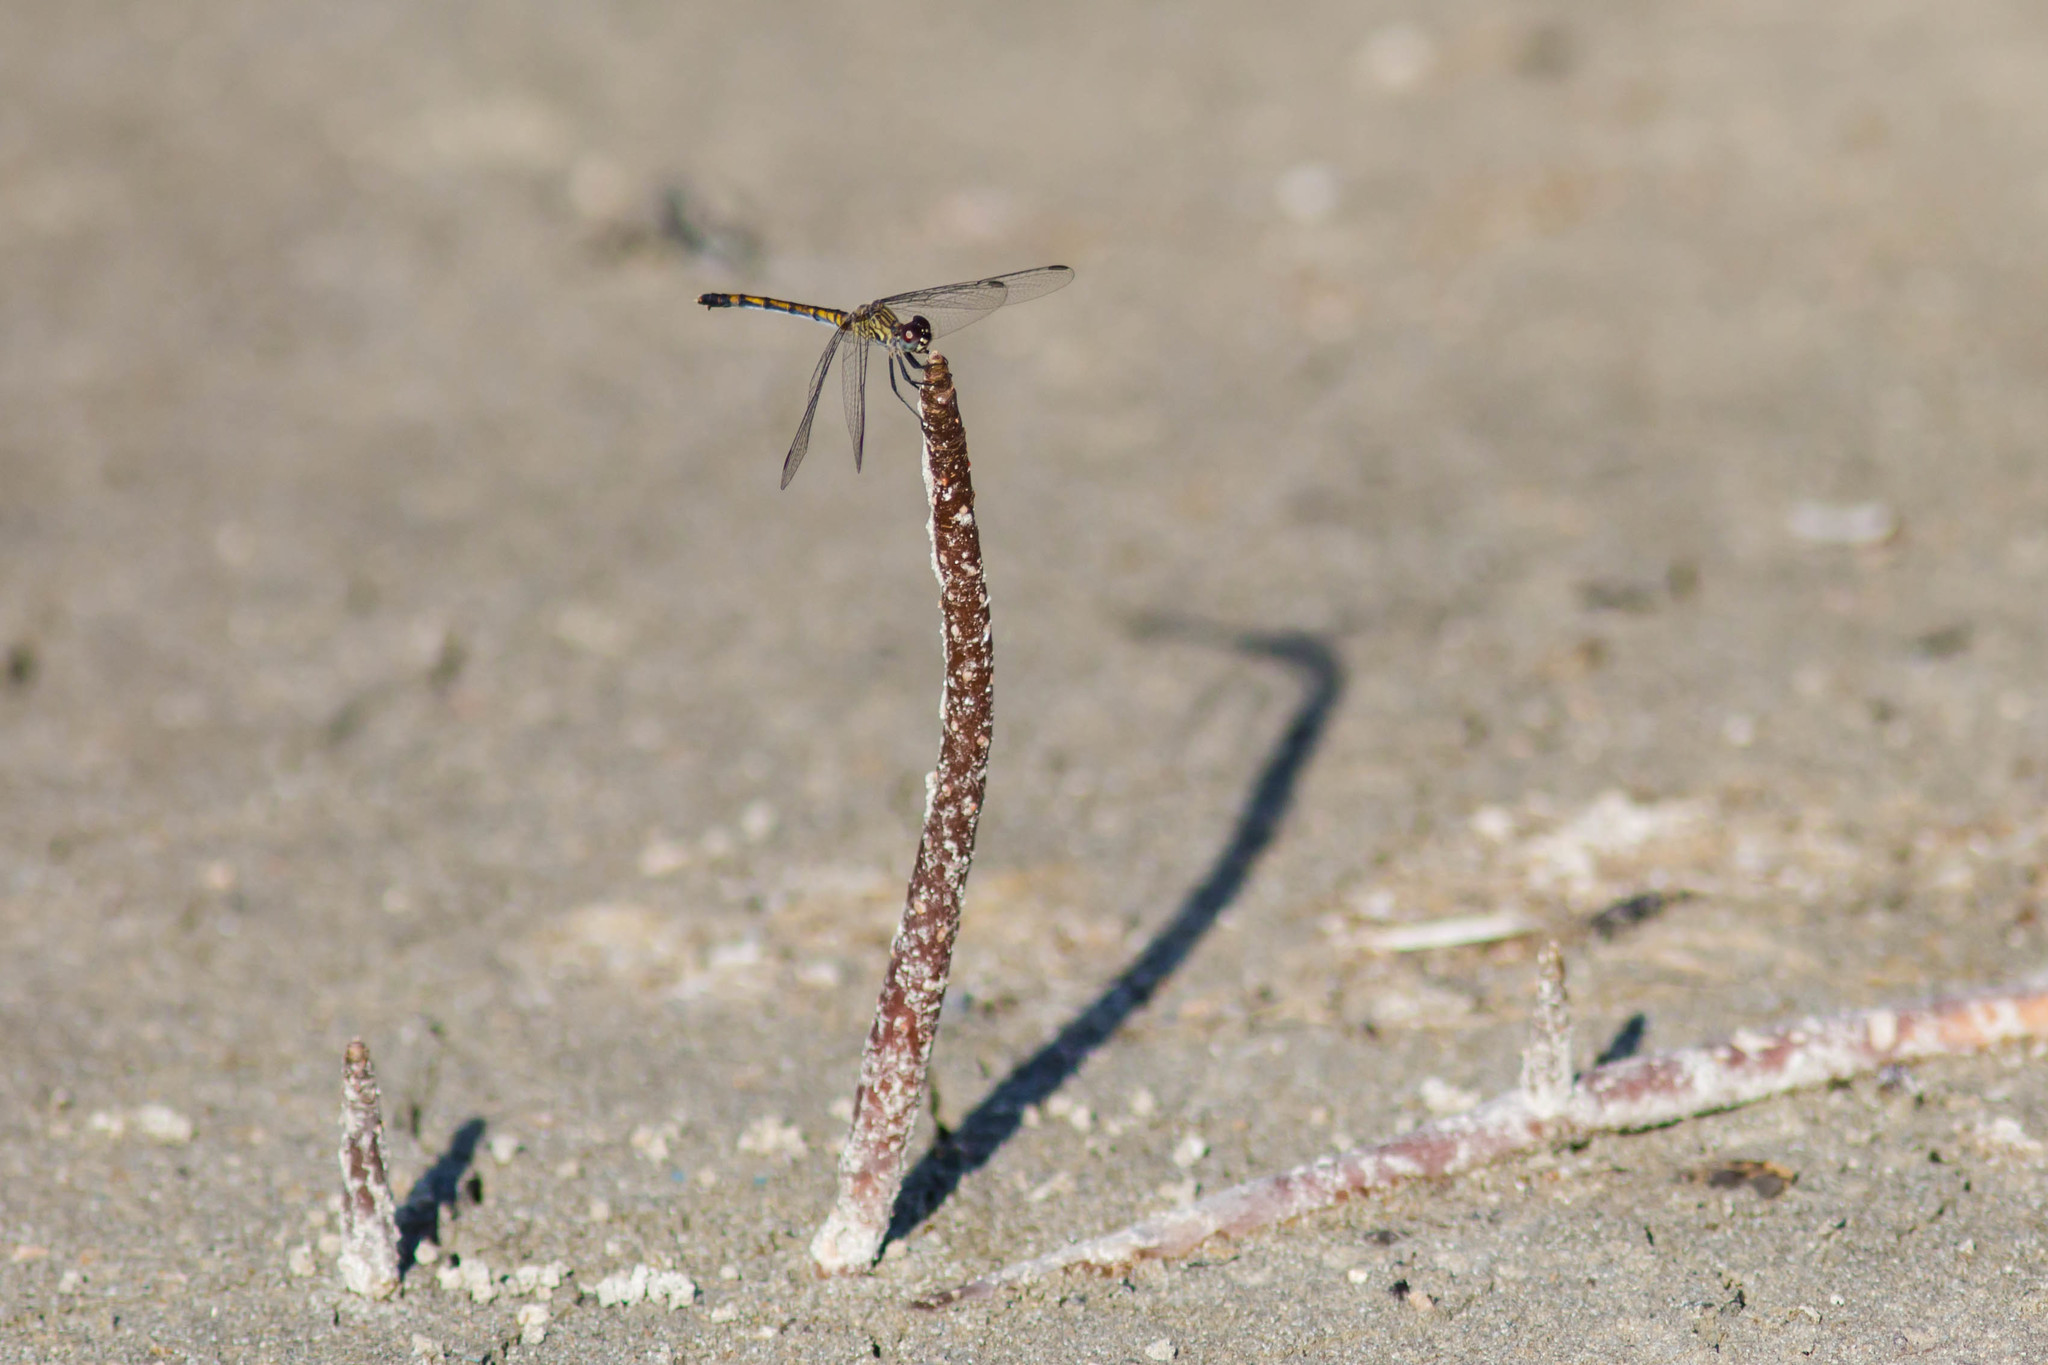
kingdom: Animalia
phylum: Arthropoda
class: Insecta
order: Odonata
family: Libellulidae
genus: Erythrodiplax
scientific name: Erythrodiplax berenice
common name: Seaside dragonlet
